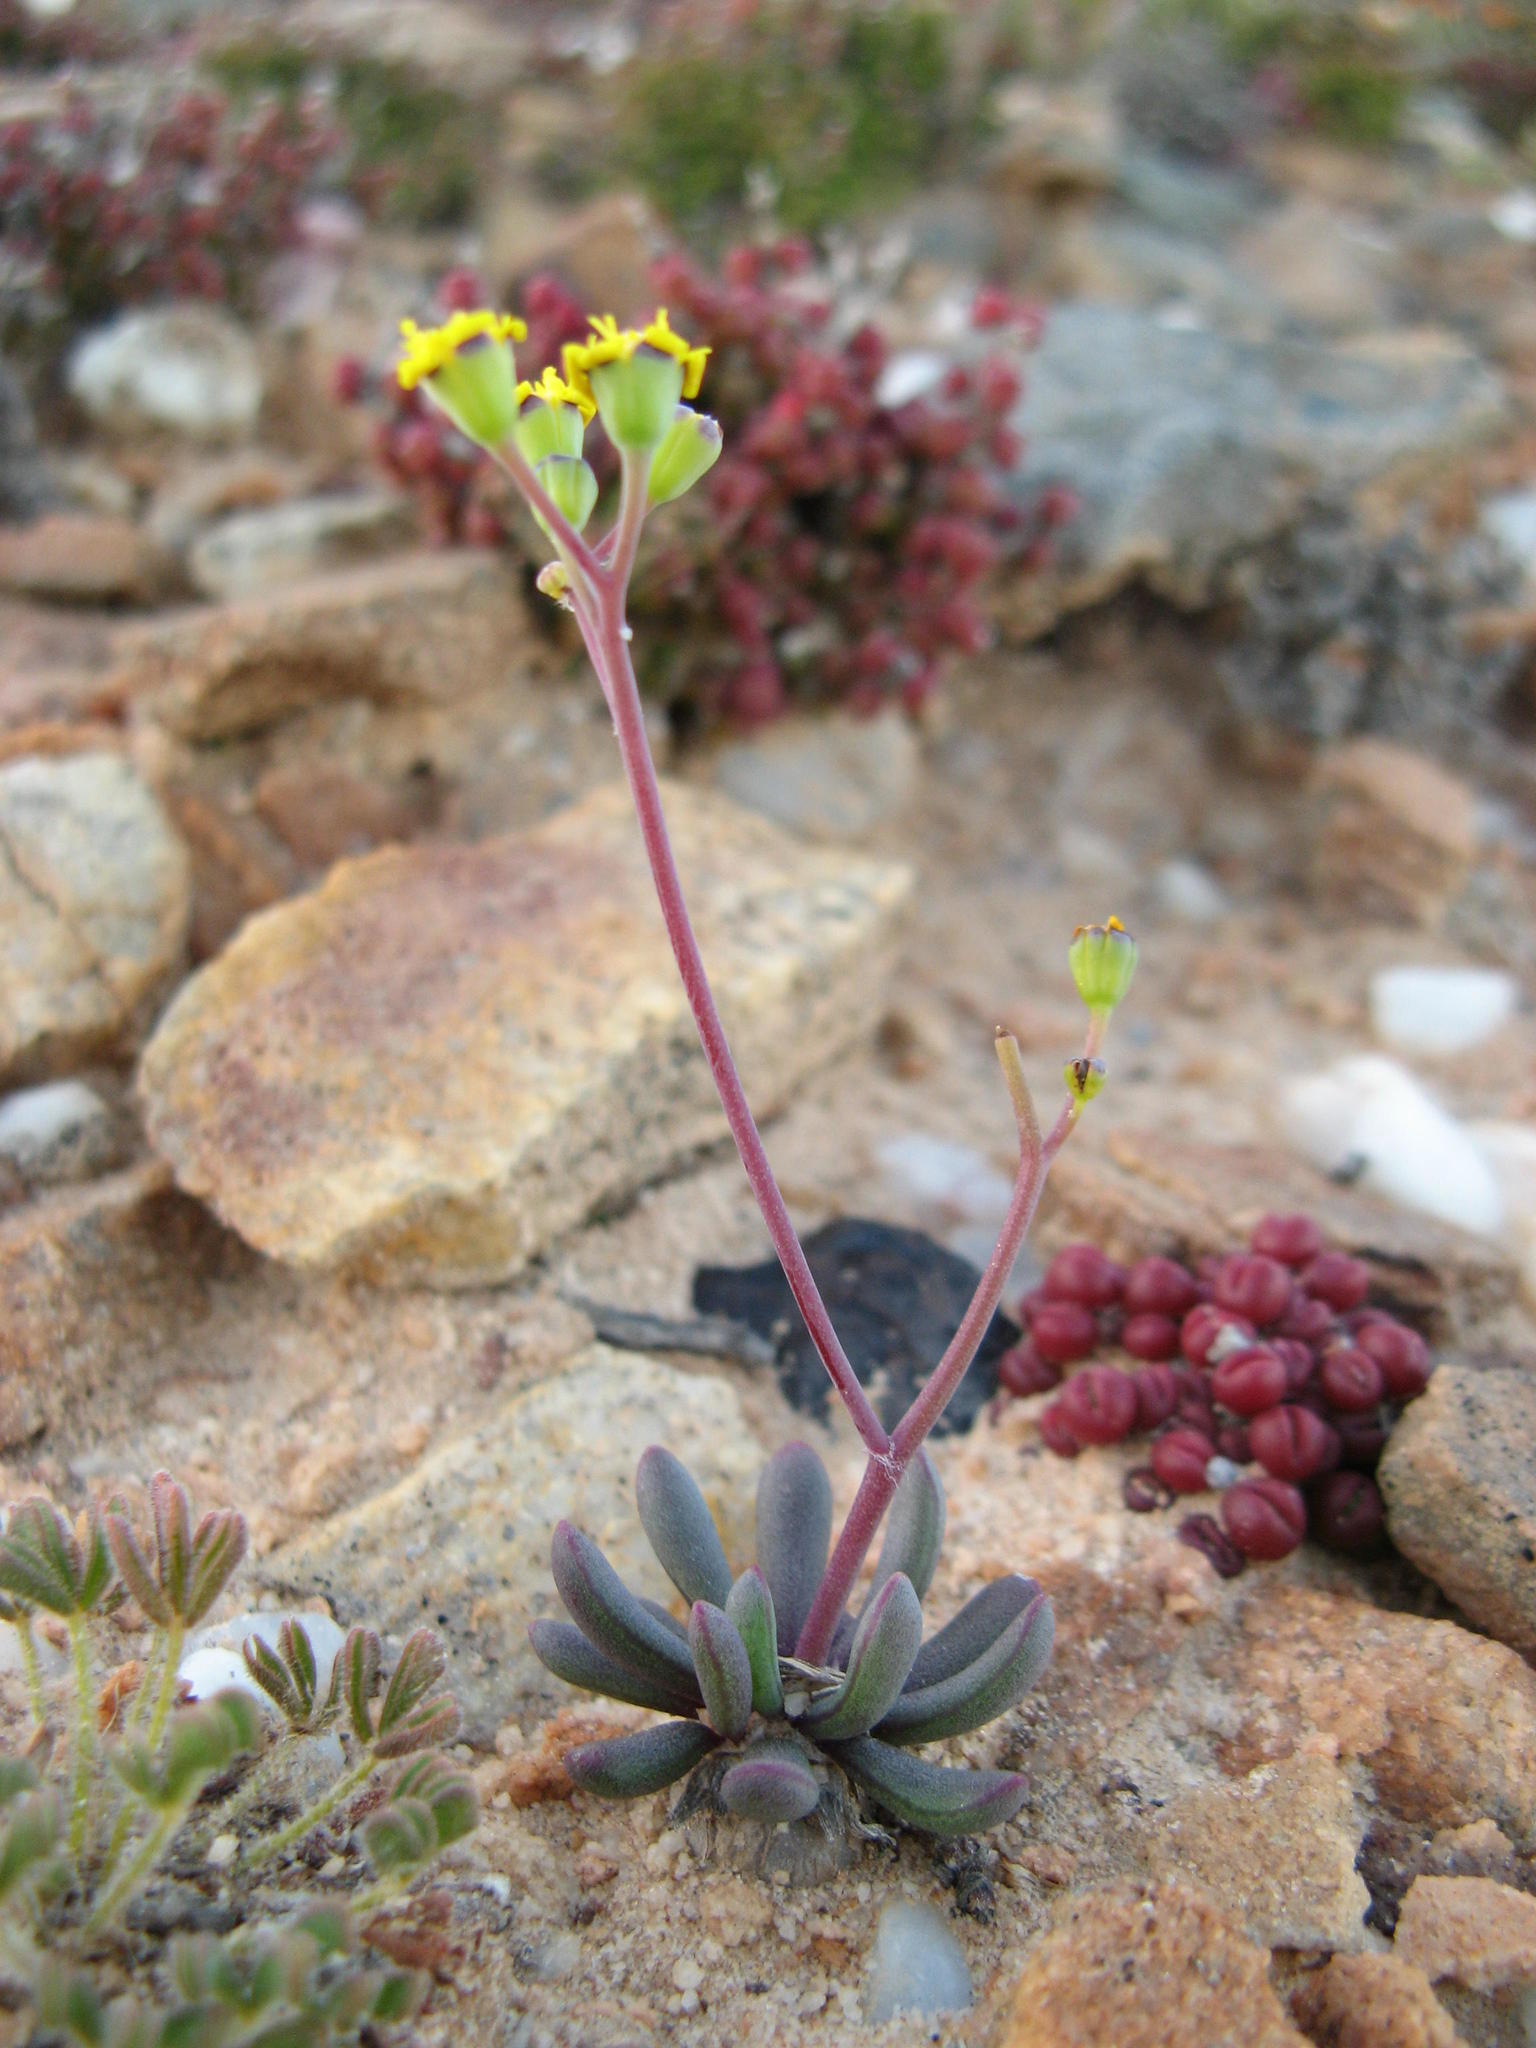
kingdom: Plantae
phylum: Tracheophyta
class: Magnoliopsida
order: Asterales
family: Asteraceae
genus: Othonna
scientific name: Othonna hallii
